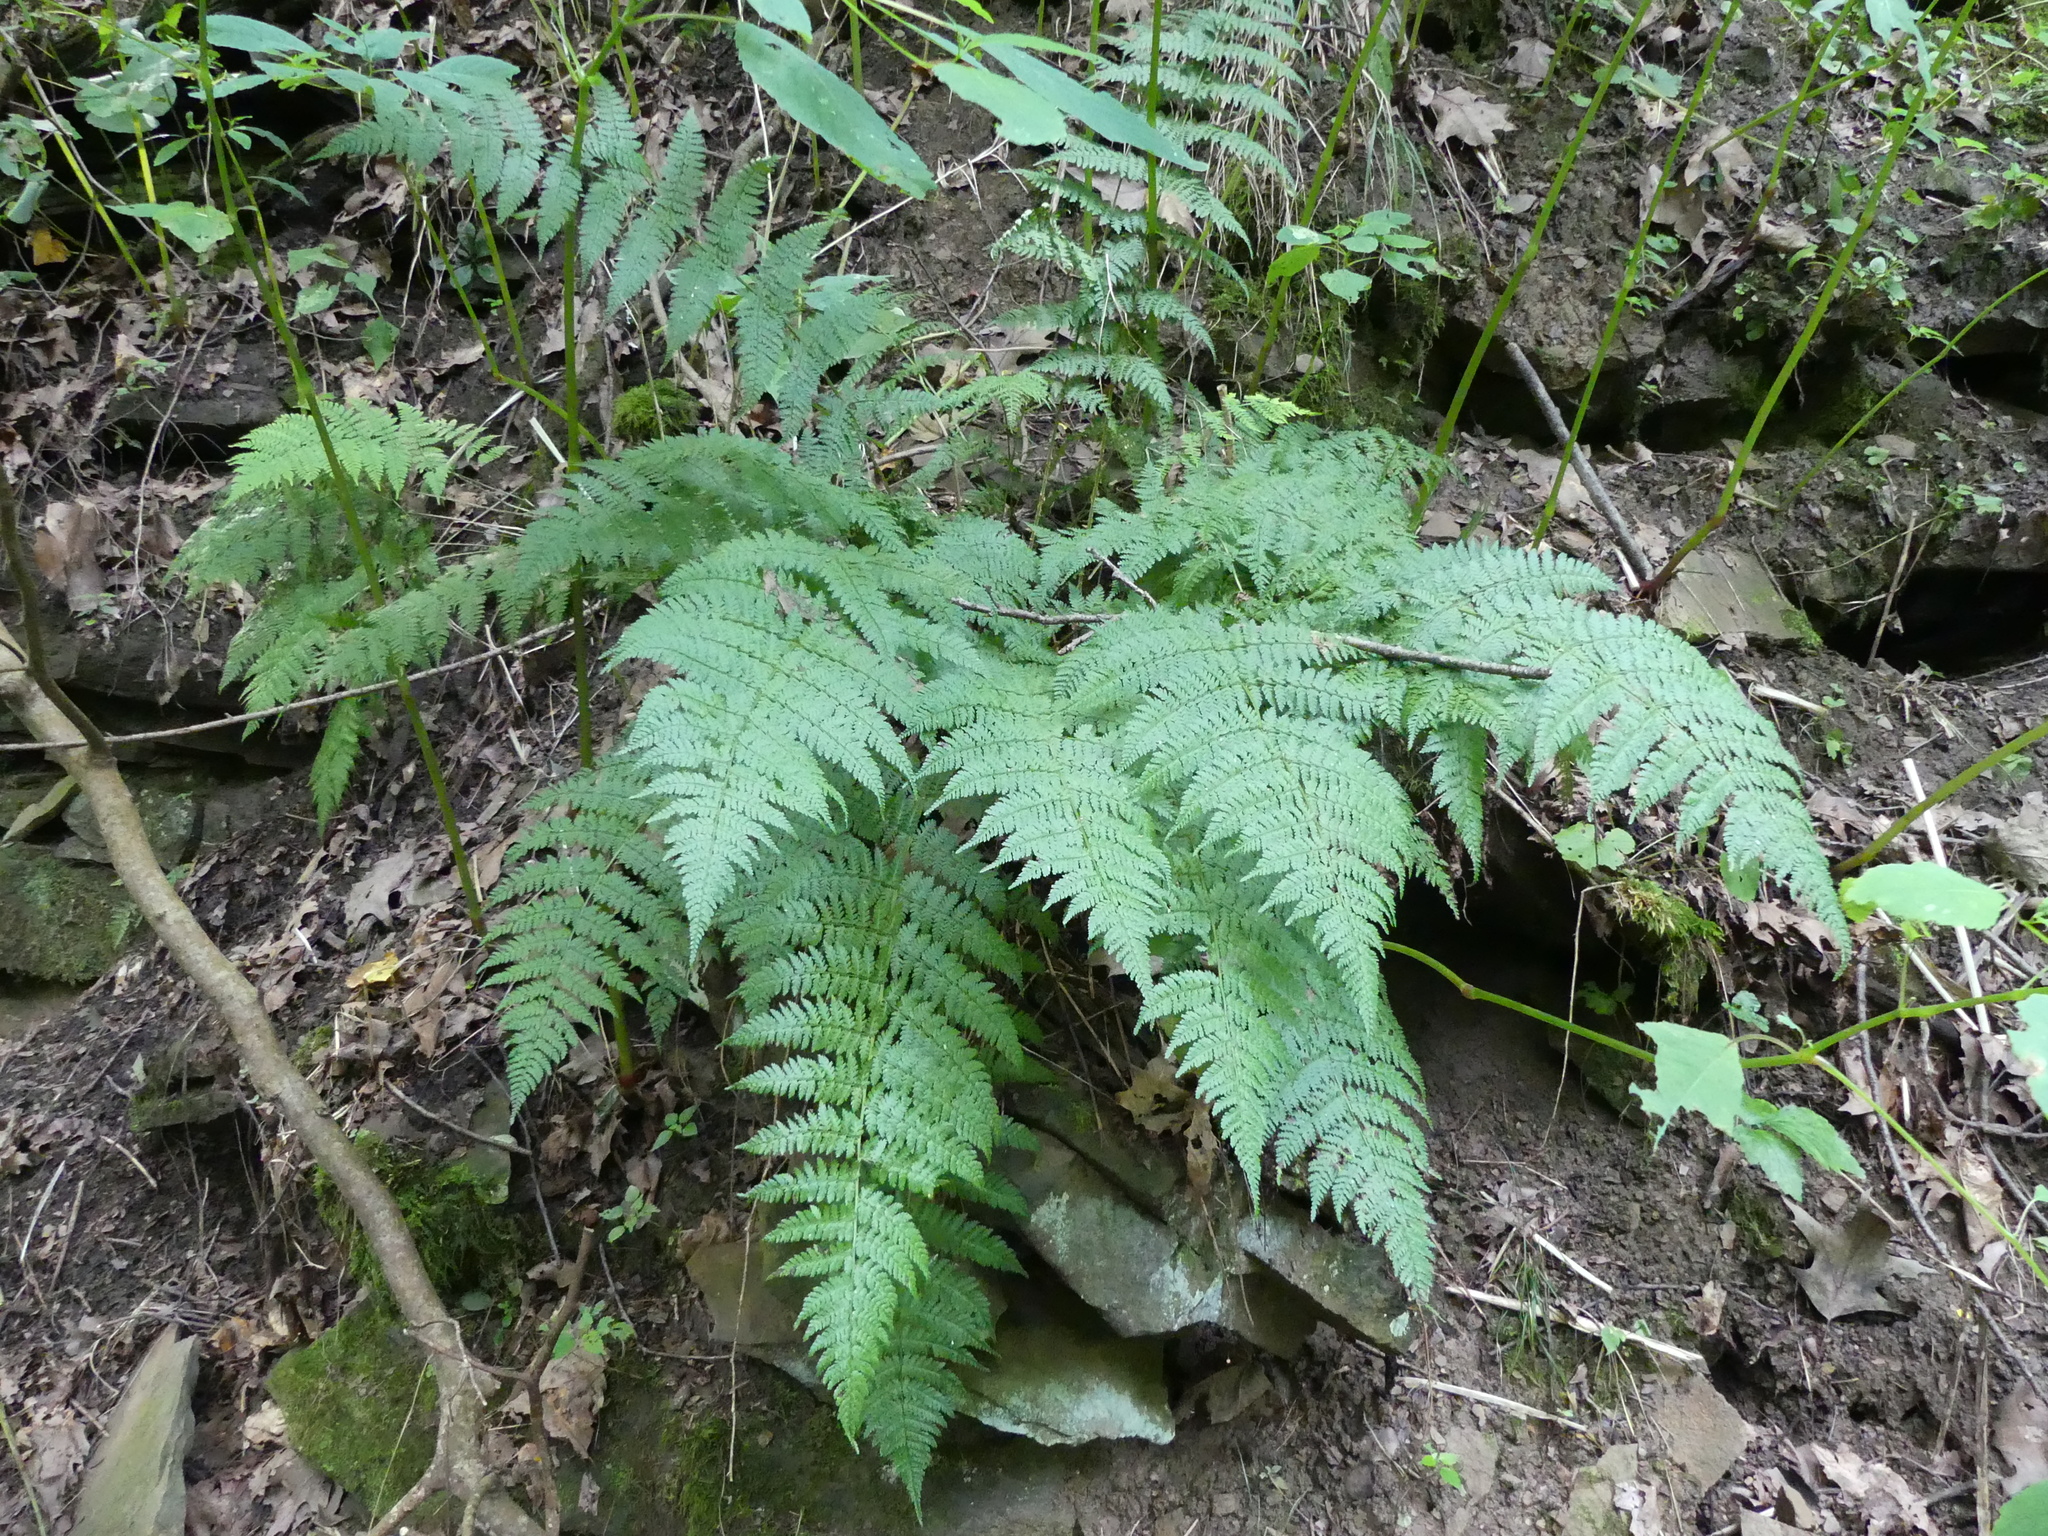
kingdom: Plantae
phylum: Tracheophyta
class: Polypodiopsida
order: Polypodiales
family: Dryopteridaceae
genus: Dryopteris
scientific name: Dryopteris intermedia
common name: Evergreen wood fern
